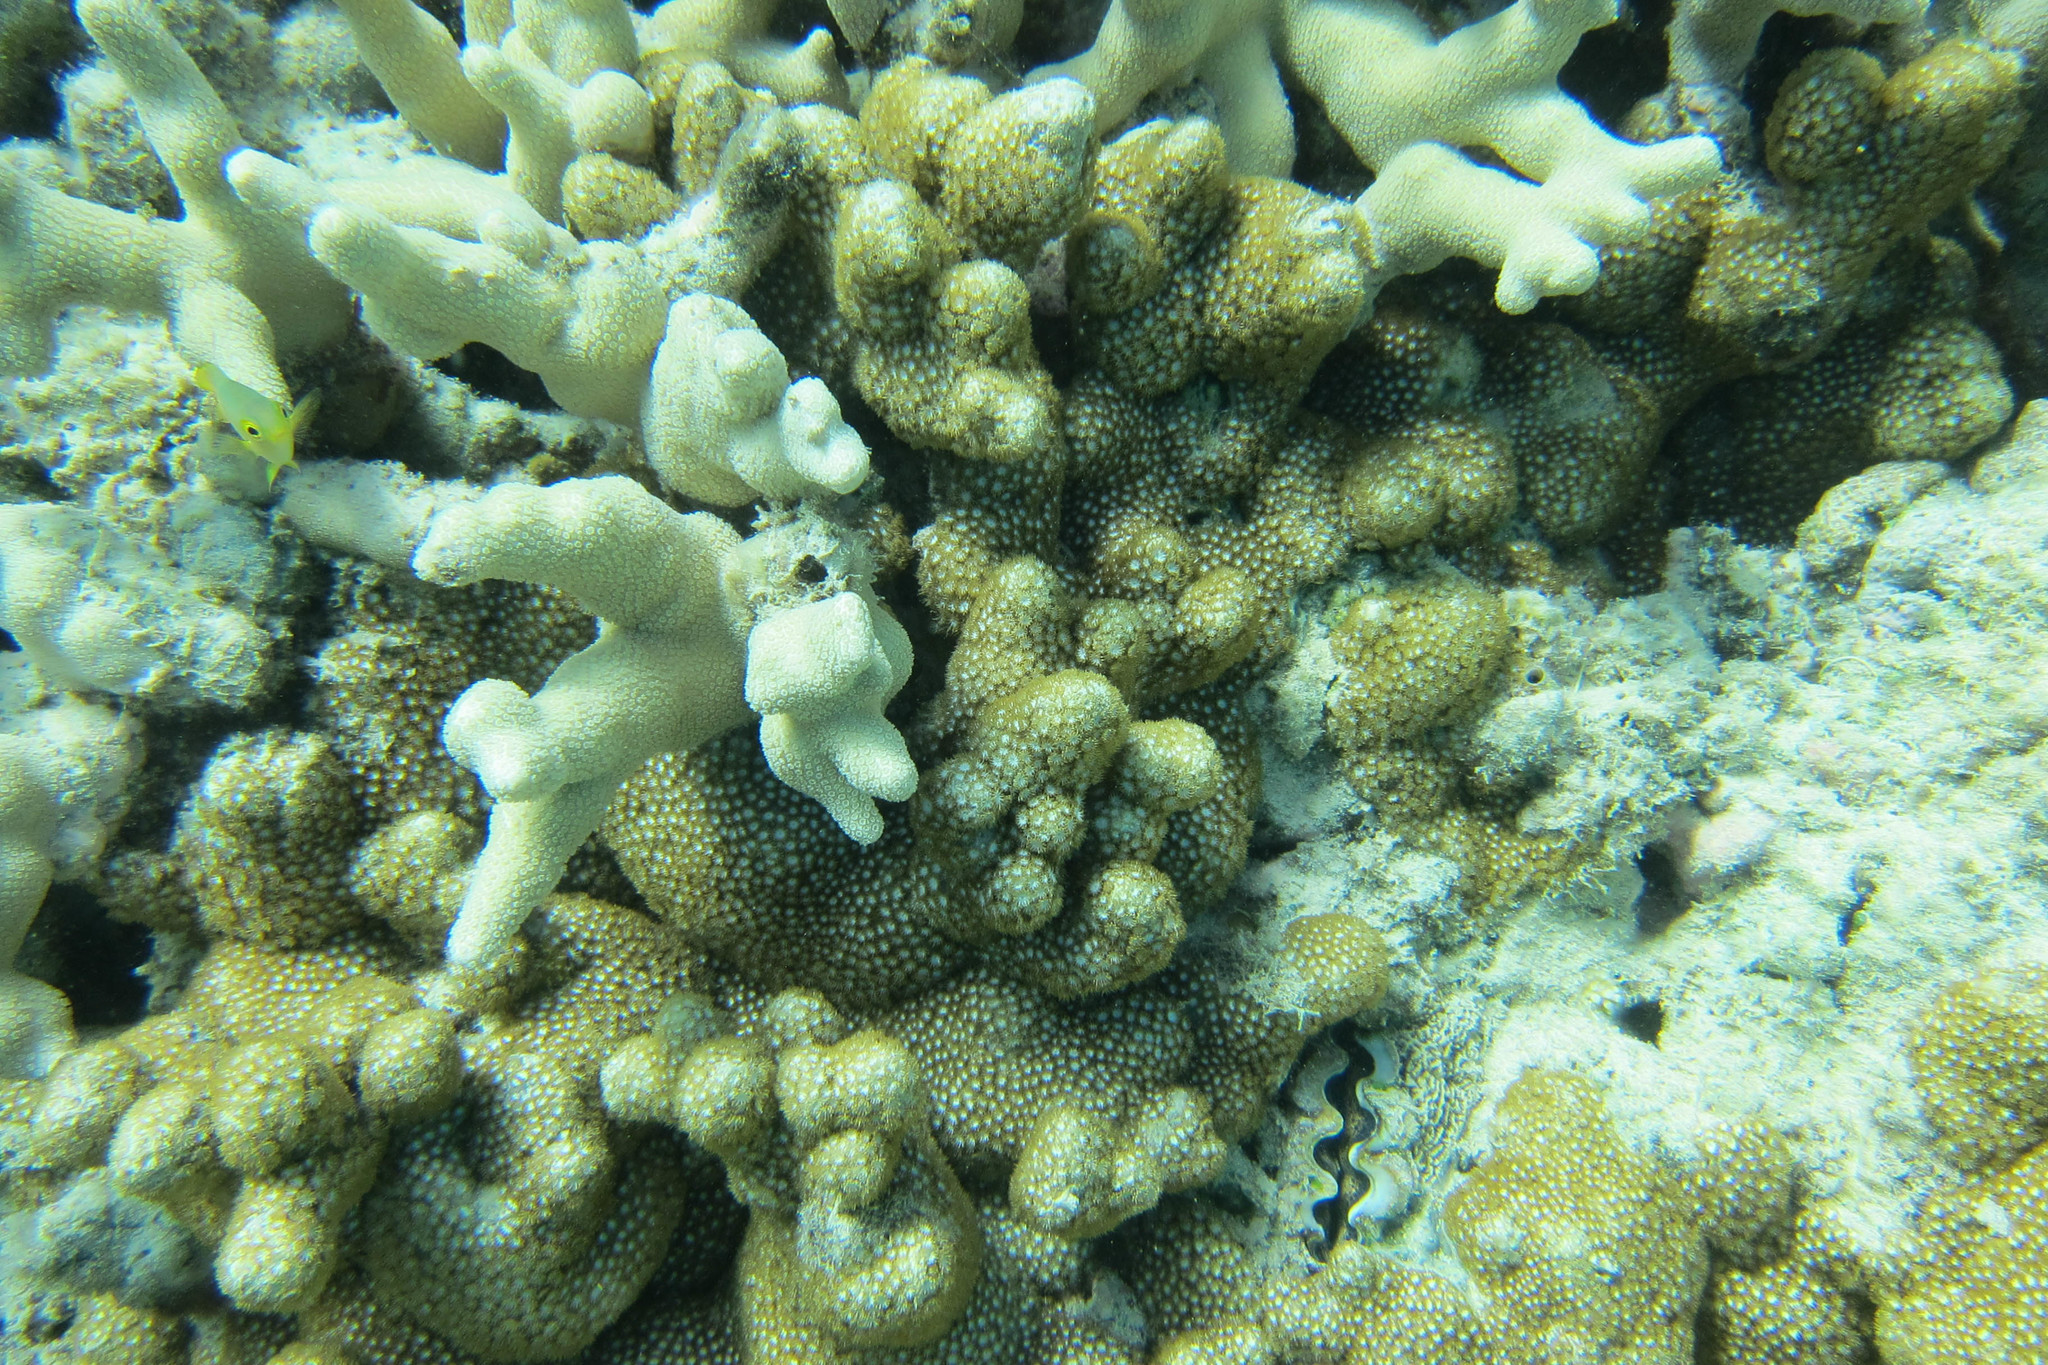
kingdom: Animalia
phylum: Cnidaria
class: Anthozoa
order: Scleractinia
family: Poritidae
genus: Bernardpora
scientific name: Bernardpora stutchburyi
